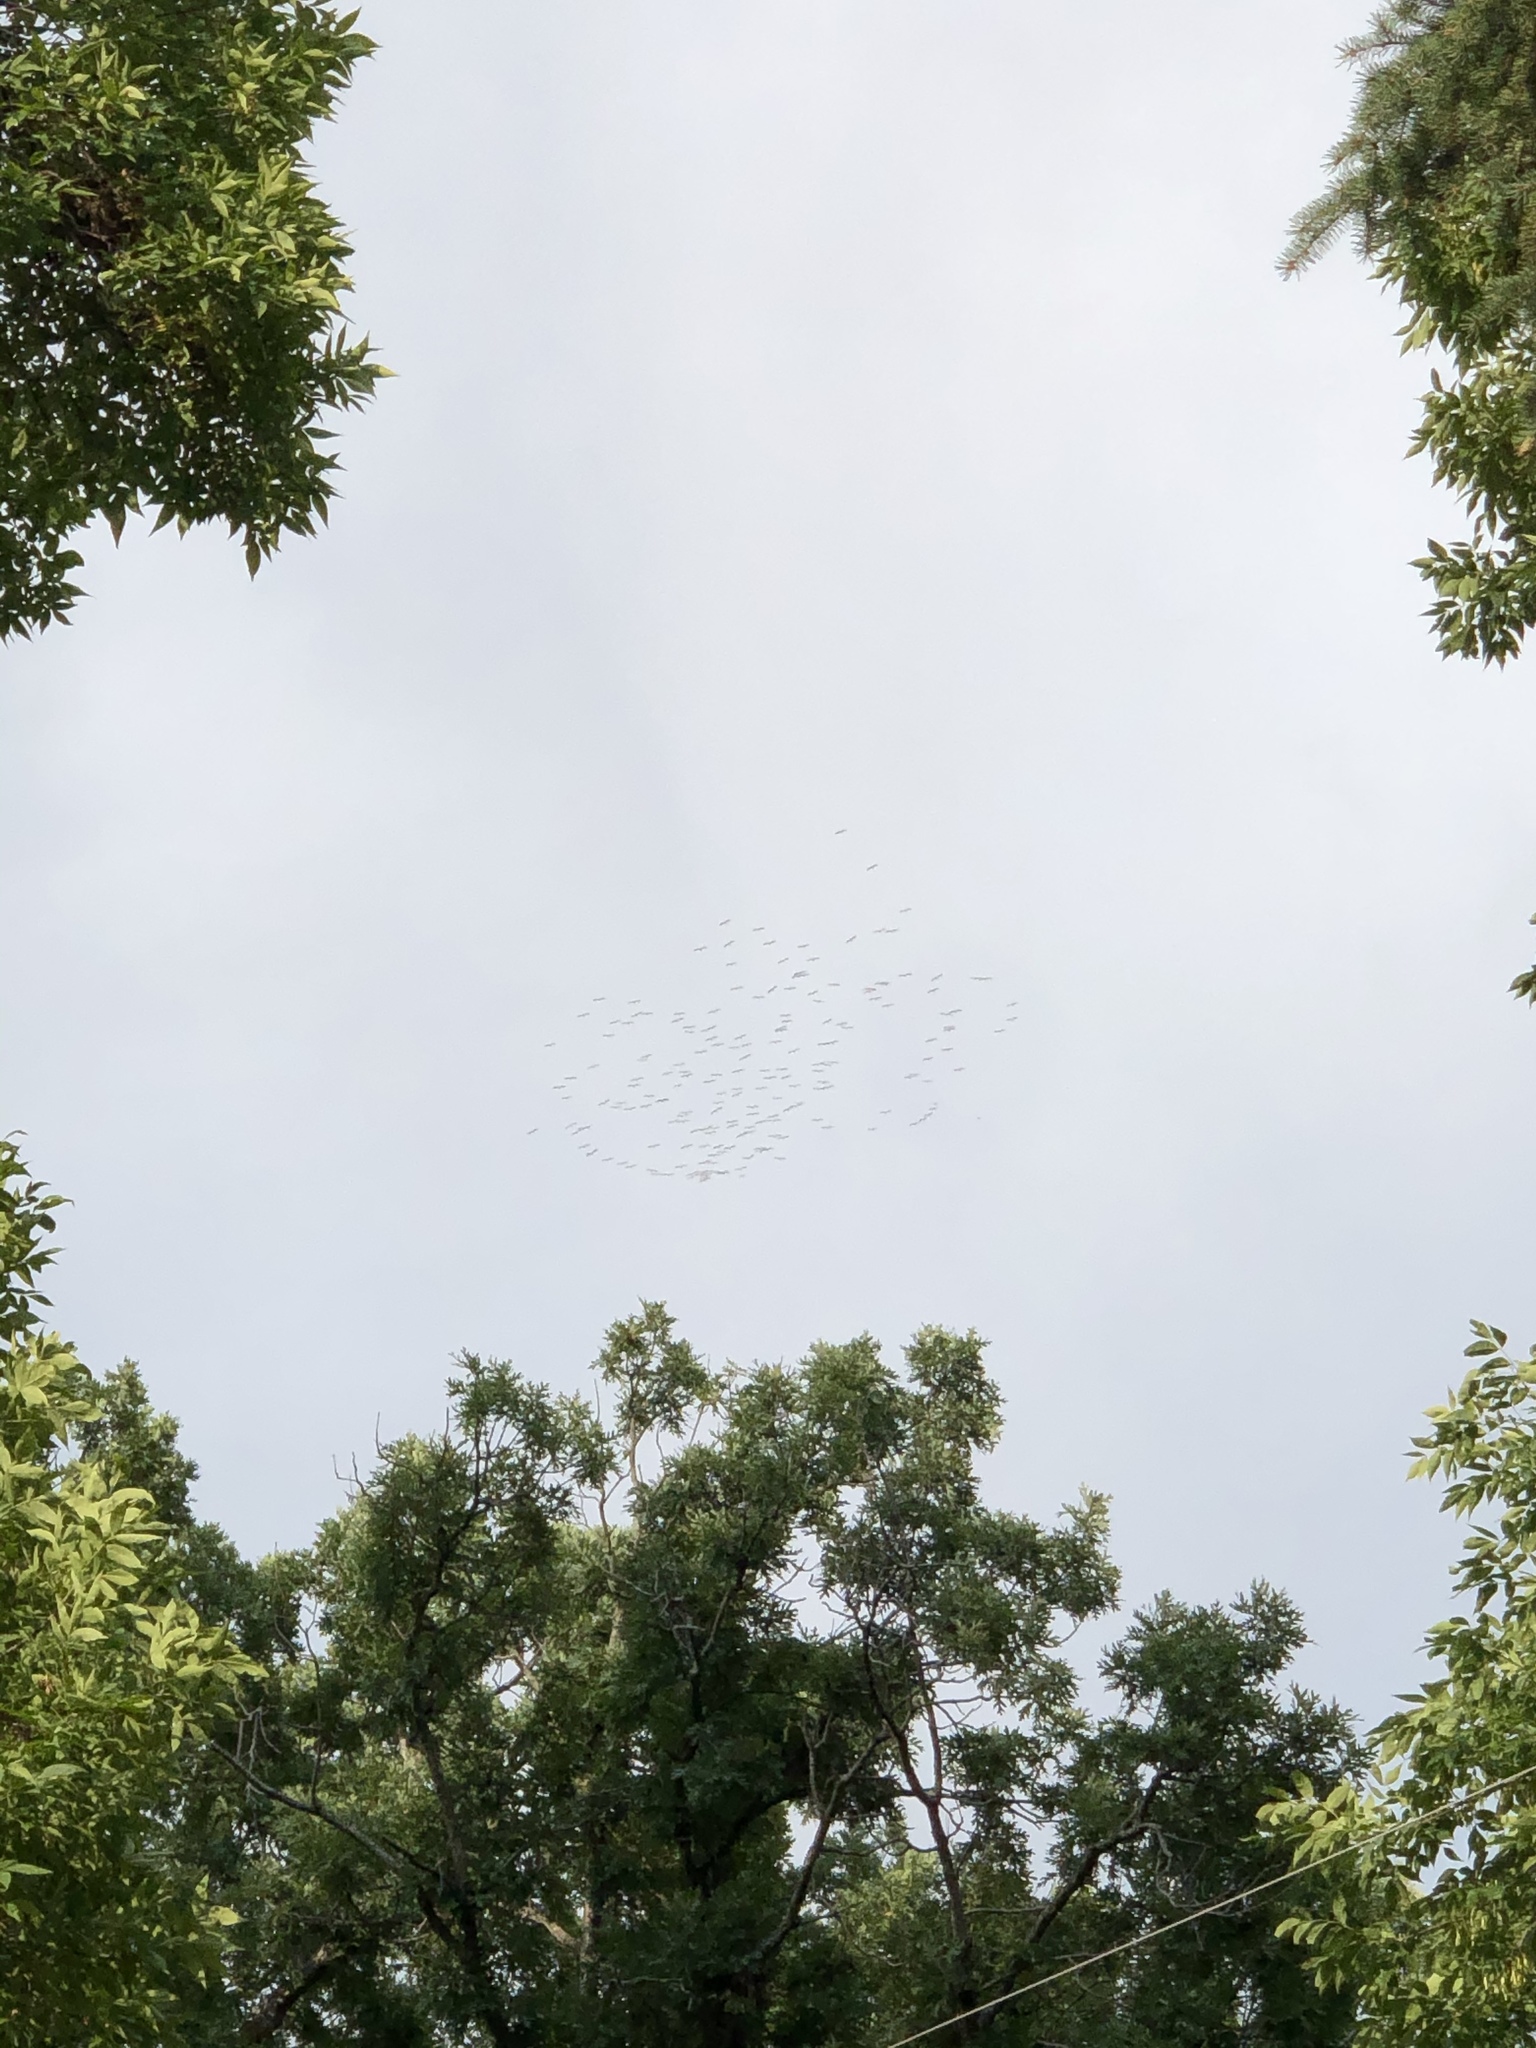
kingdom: Animalia
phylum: Chordata
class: Aves
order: Pelecaniformes
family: Pelecanidae
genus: Pelecanus
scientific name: Pelecanus erythrorhynchos
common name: American white pelican
